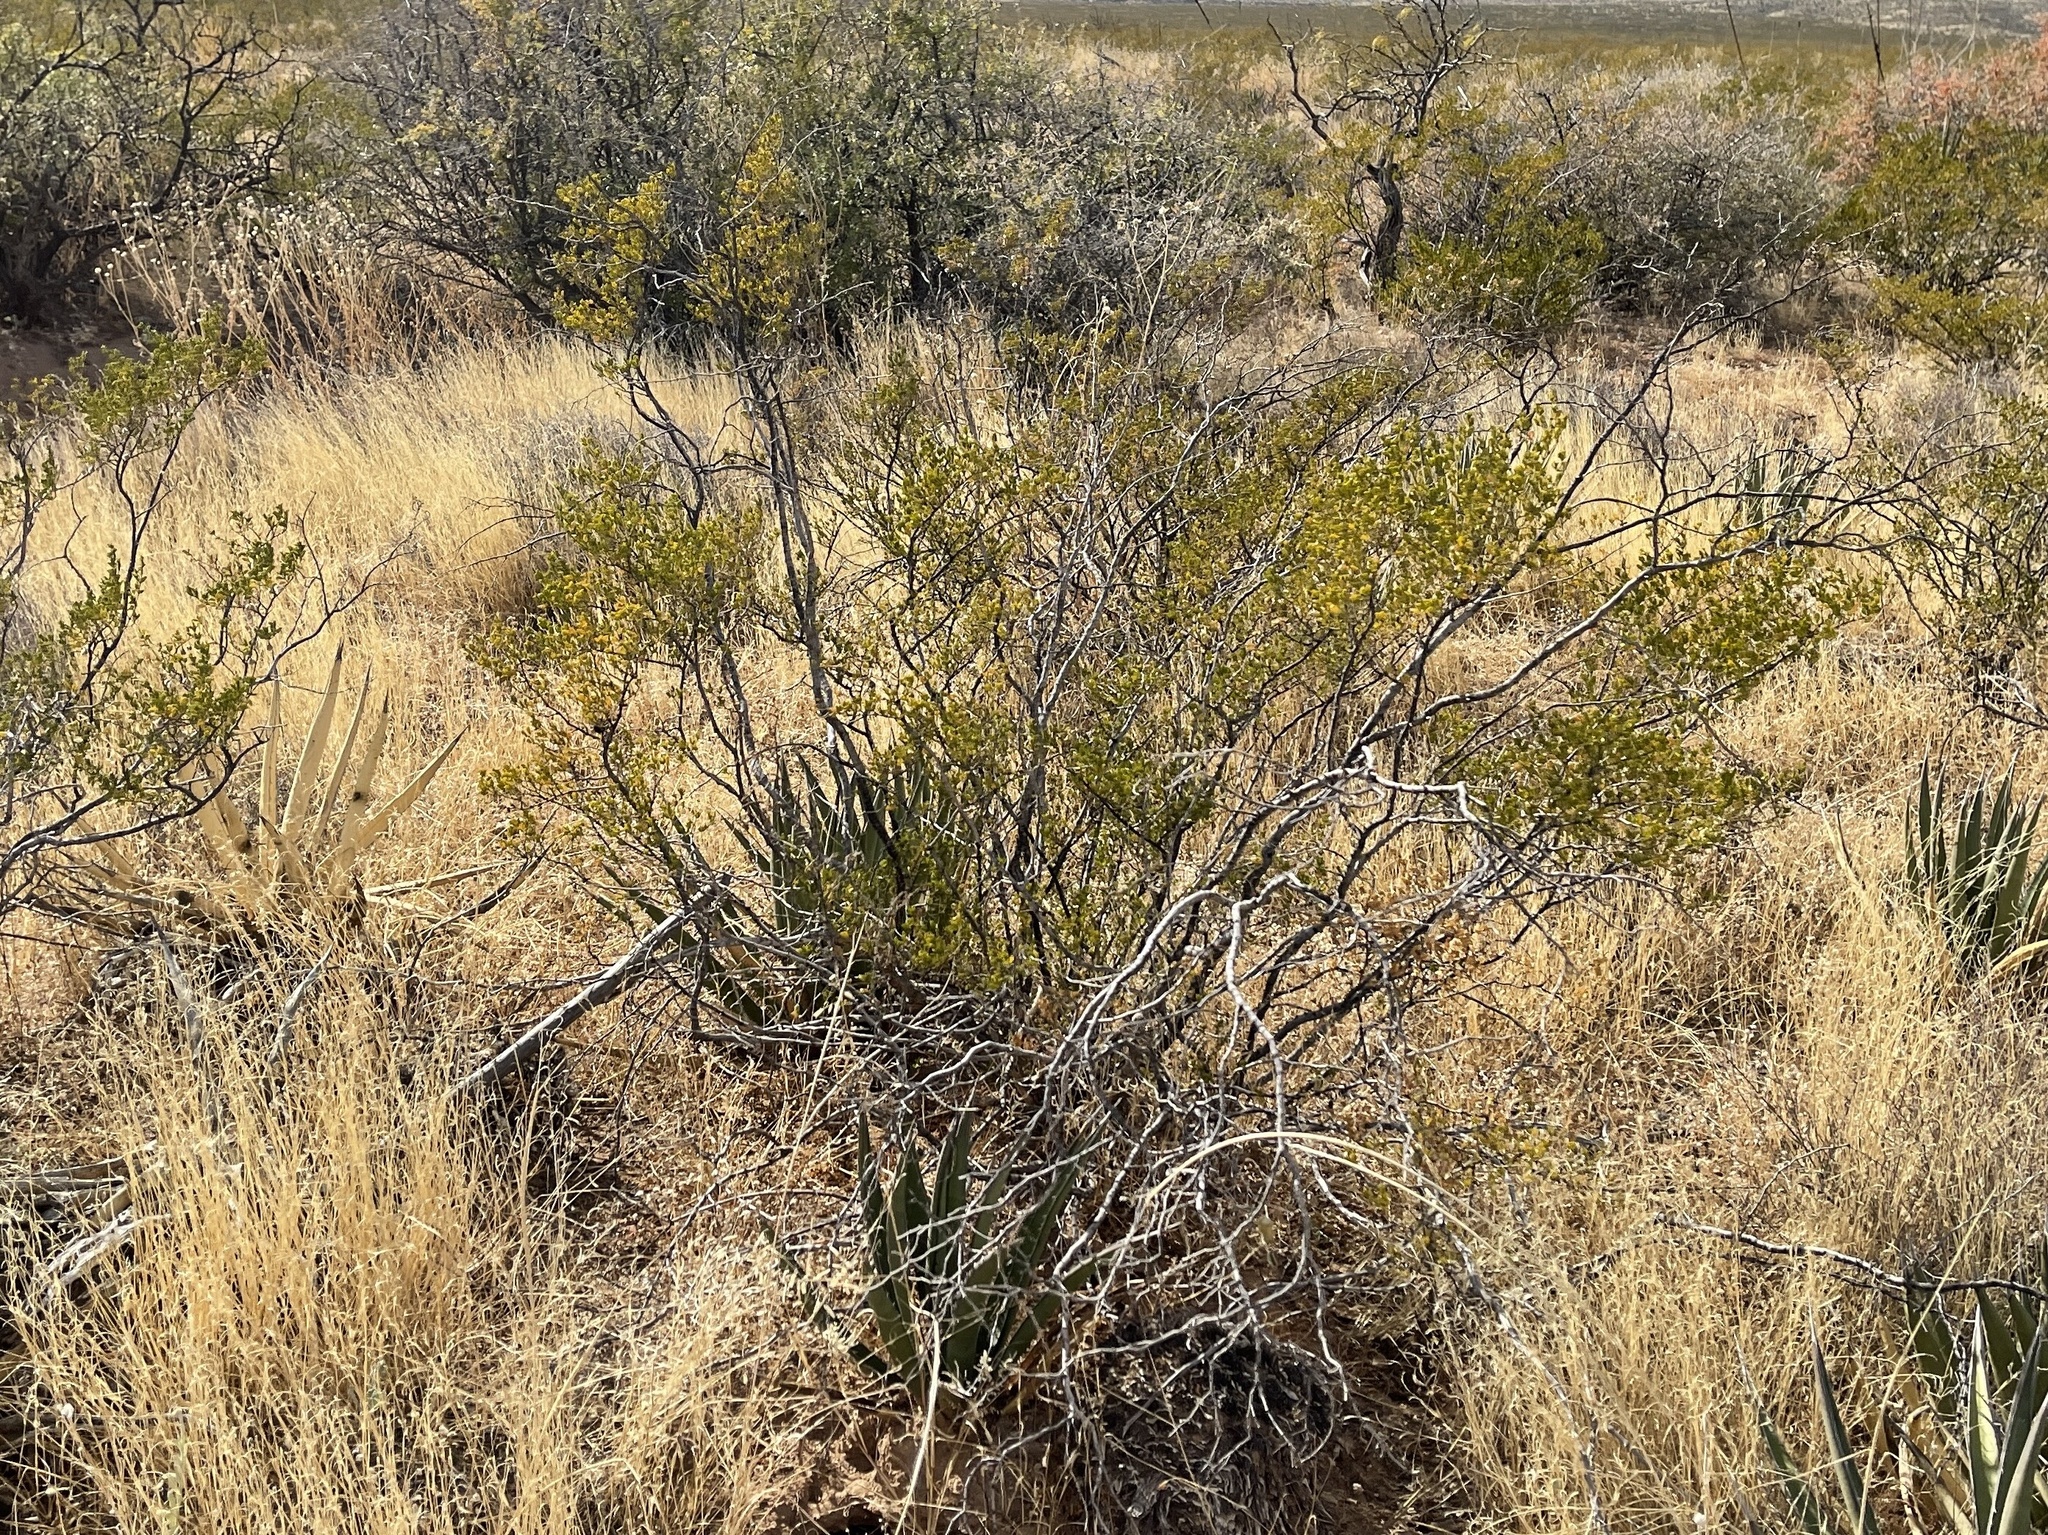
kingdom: Plantae
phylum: Tracheophyta
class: Magnoliopsida
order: Zygophyllales
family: Zygophyllaceae
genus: Larrea
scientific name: Larrea tridentata
